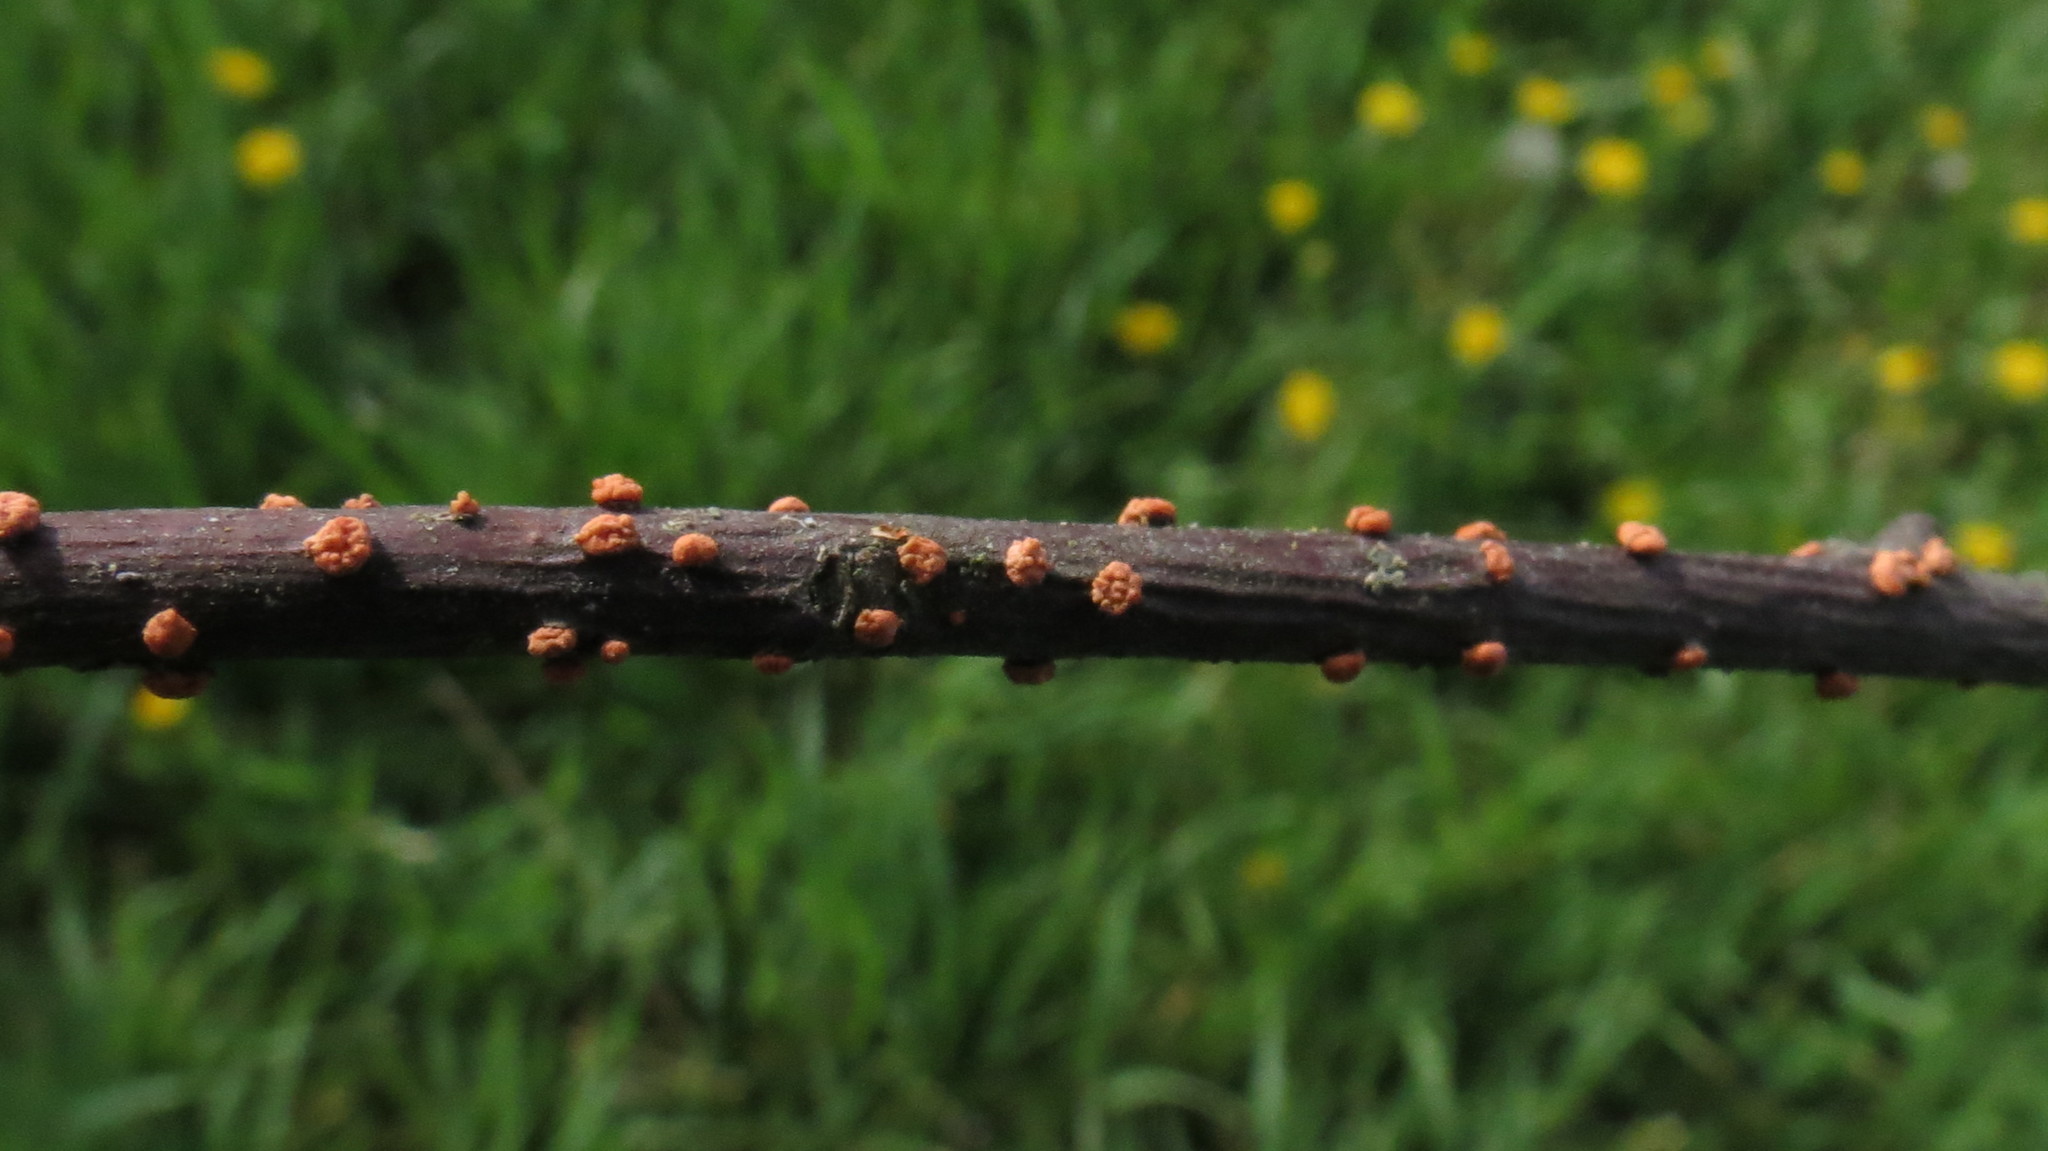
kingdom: Fungi
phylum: Ascomycota
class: Sordariomycetes
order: Hypocreales
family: Nectriaceae
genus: Nectria
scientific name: Nectria cinnabarina
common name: Coral spot
